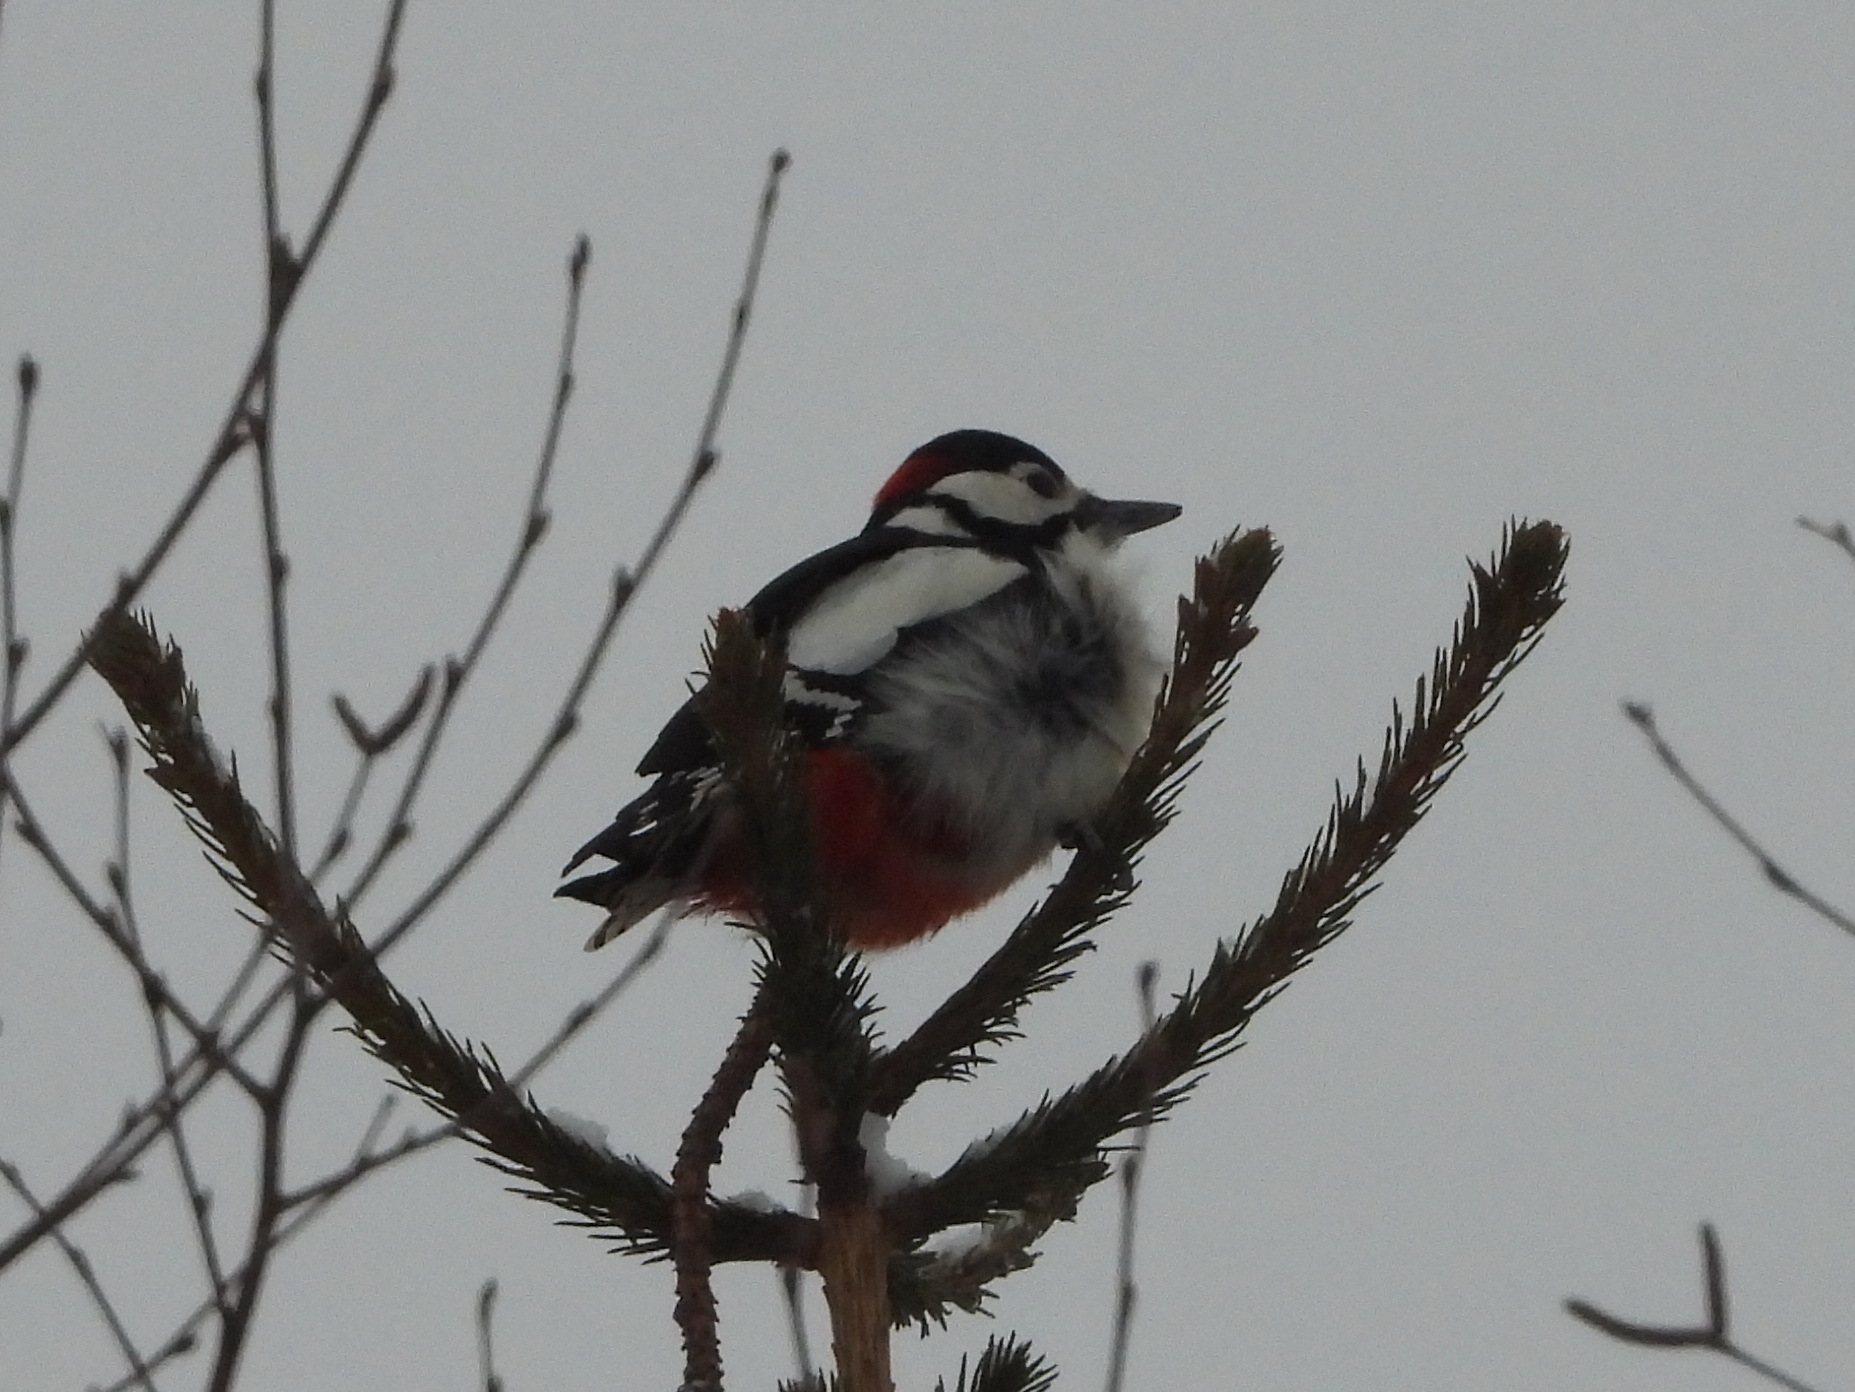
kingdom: Animalia
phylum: Chordata
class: Aves
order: Piciformes
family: Picidae
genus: Dendrocopos
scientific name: Dendrocopos major
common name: Great spotted woodpecker
